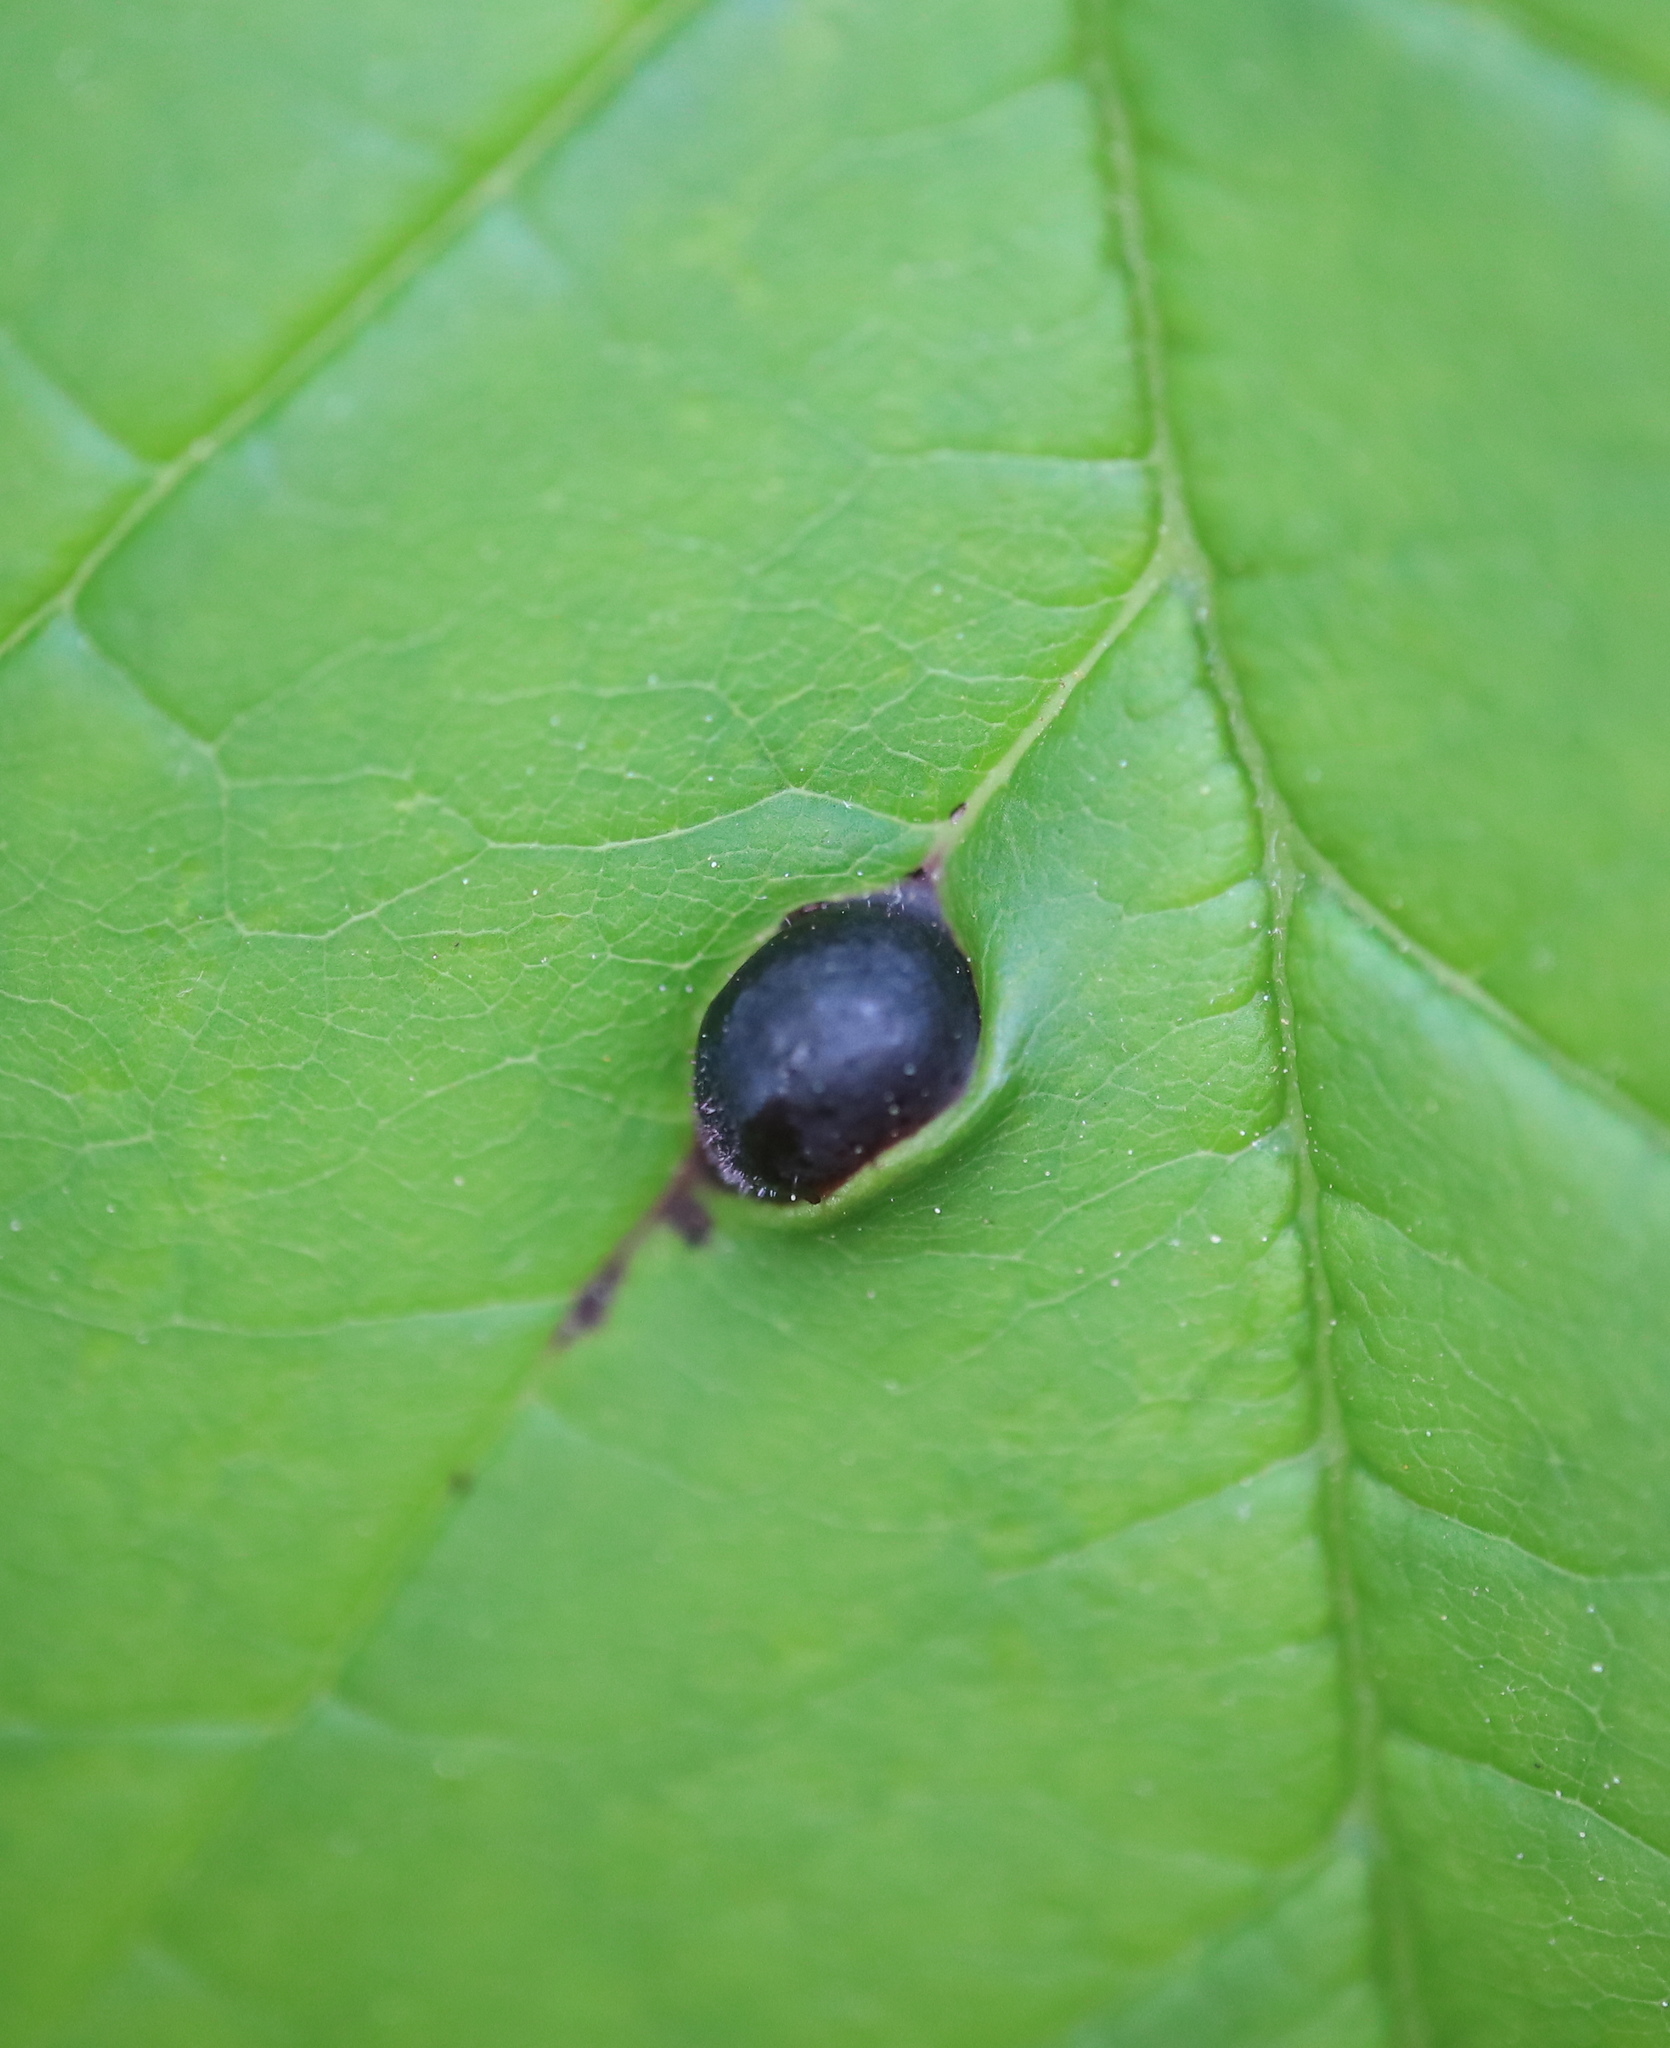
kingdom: Animalia
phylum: Arthropoda
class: Insecta
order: Diptera
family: Cecidomyiidae
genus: Dasineura
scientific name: Dasineura pellex
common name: Ash bullet gall midge
